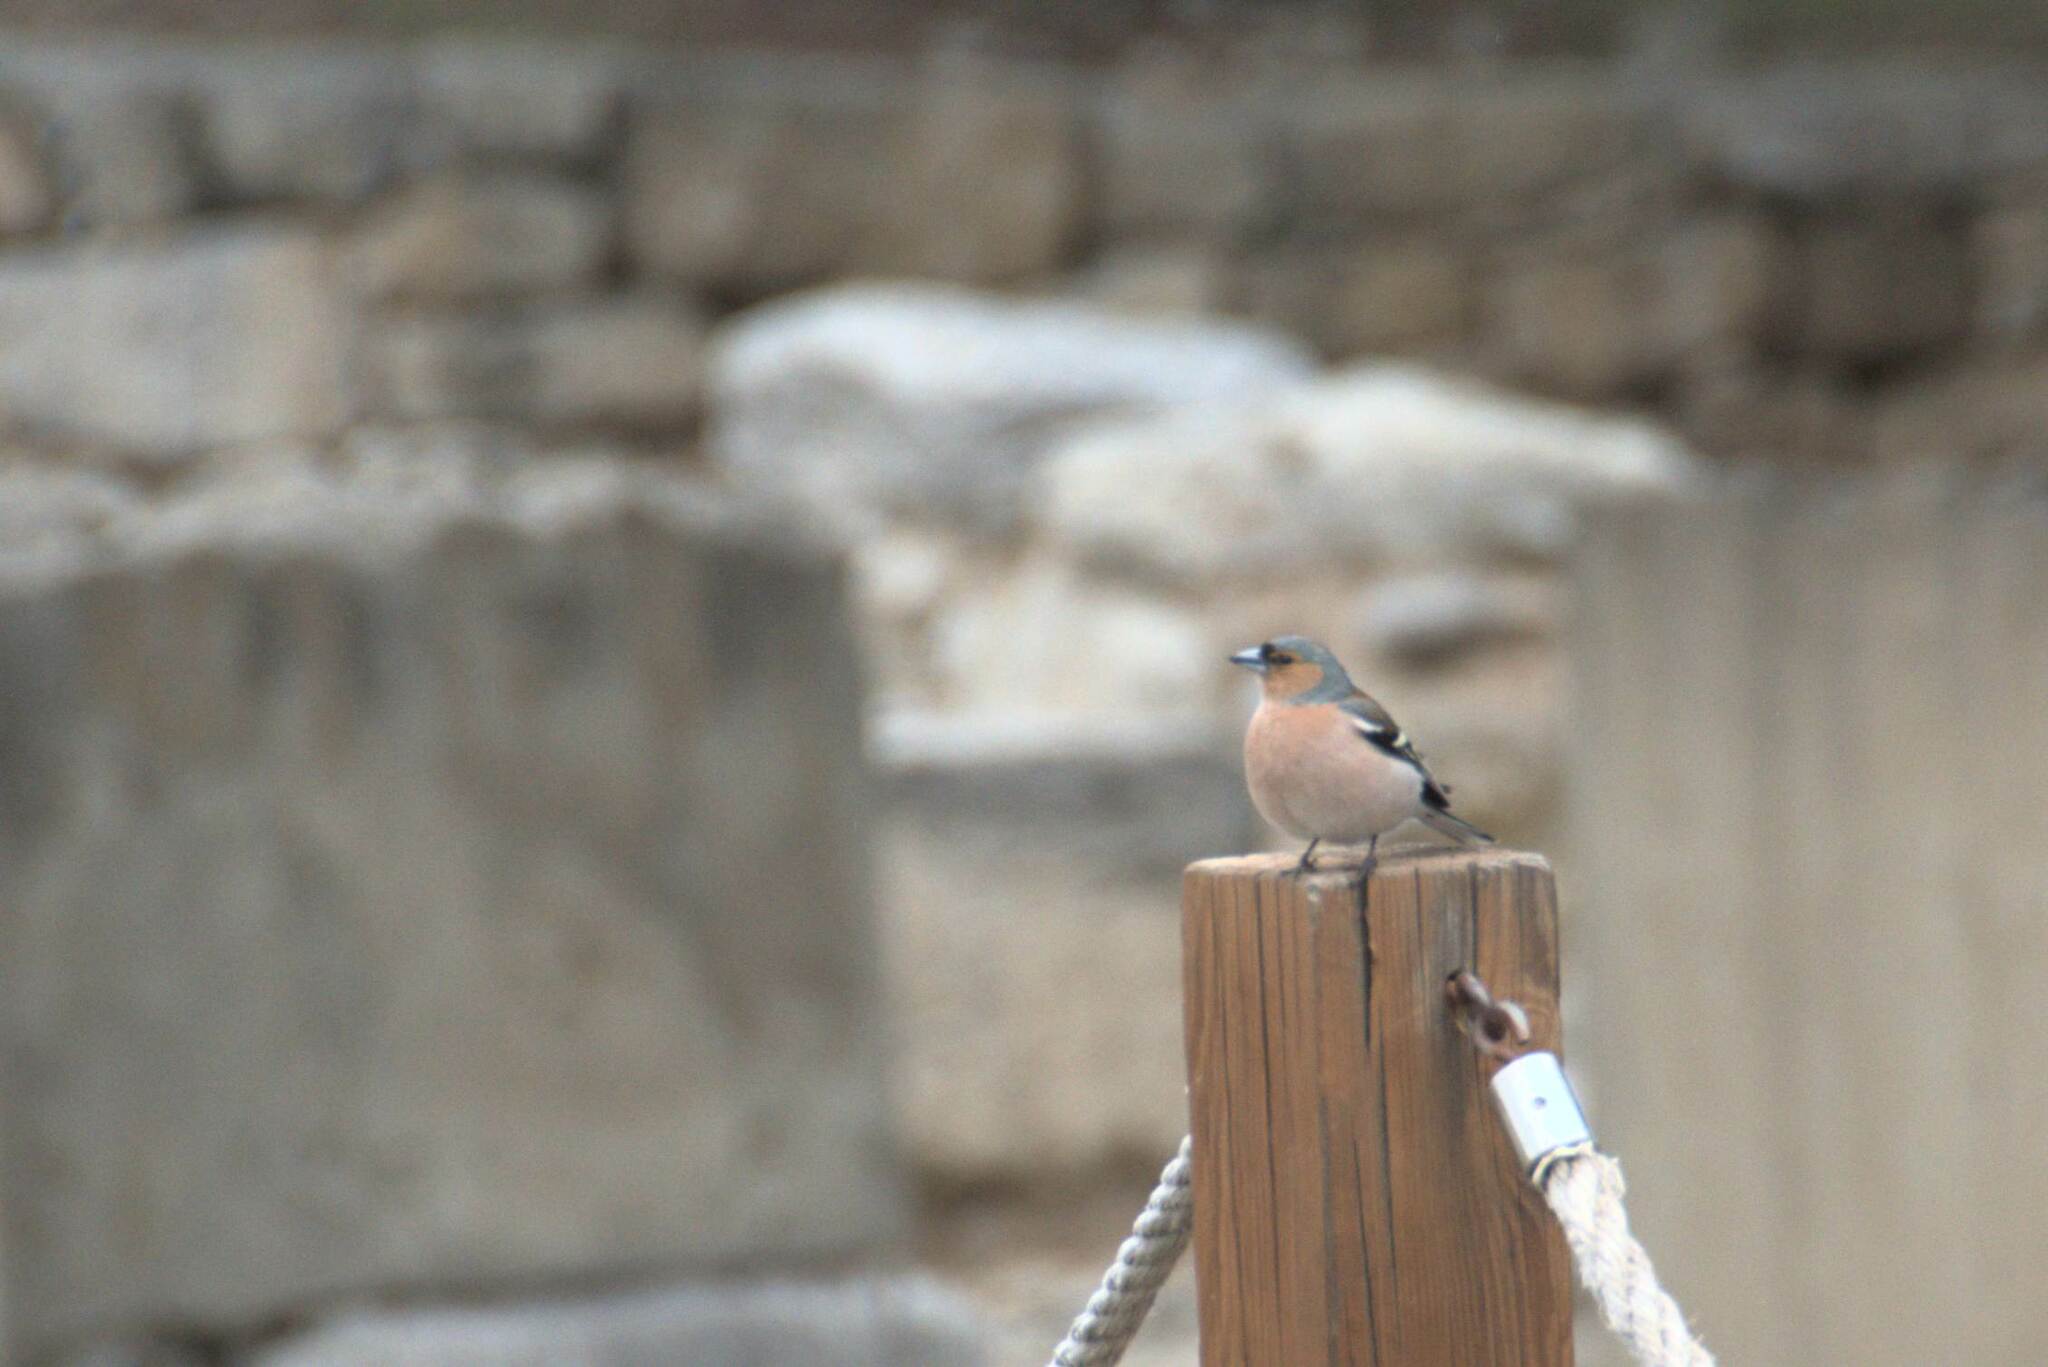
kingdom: Animalia
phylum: Chordata
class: Aves
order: Passeriformes
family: Fringillidae
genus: Fringilla
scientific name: Fringilla coelebs
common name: Common chaffinch
